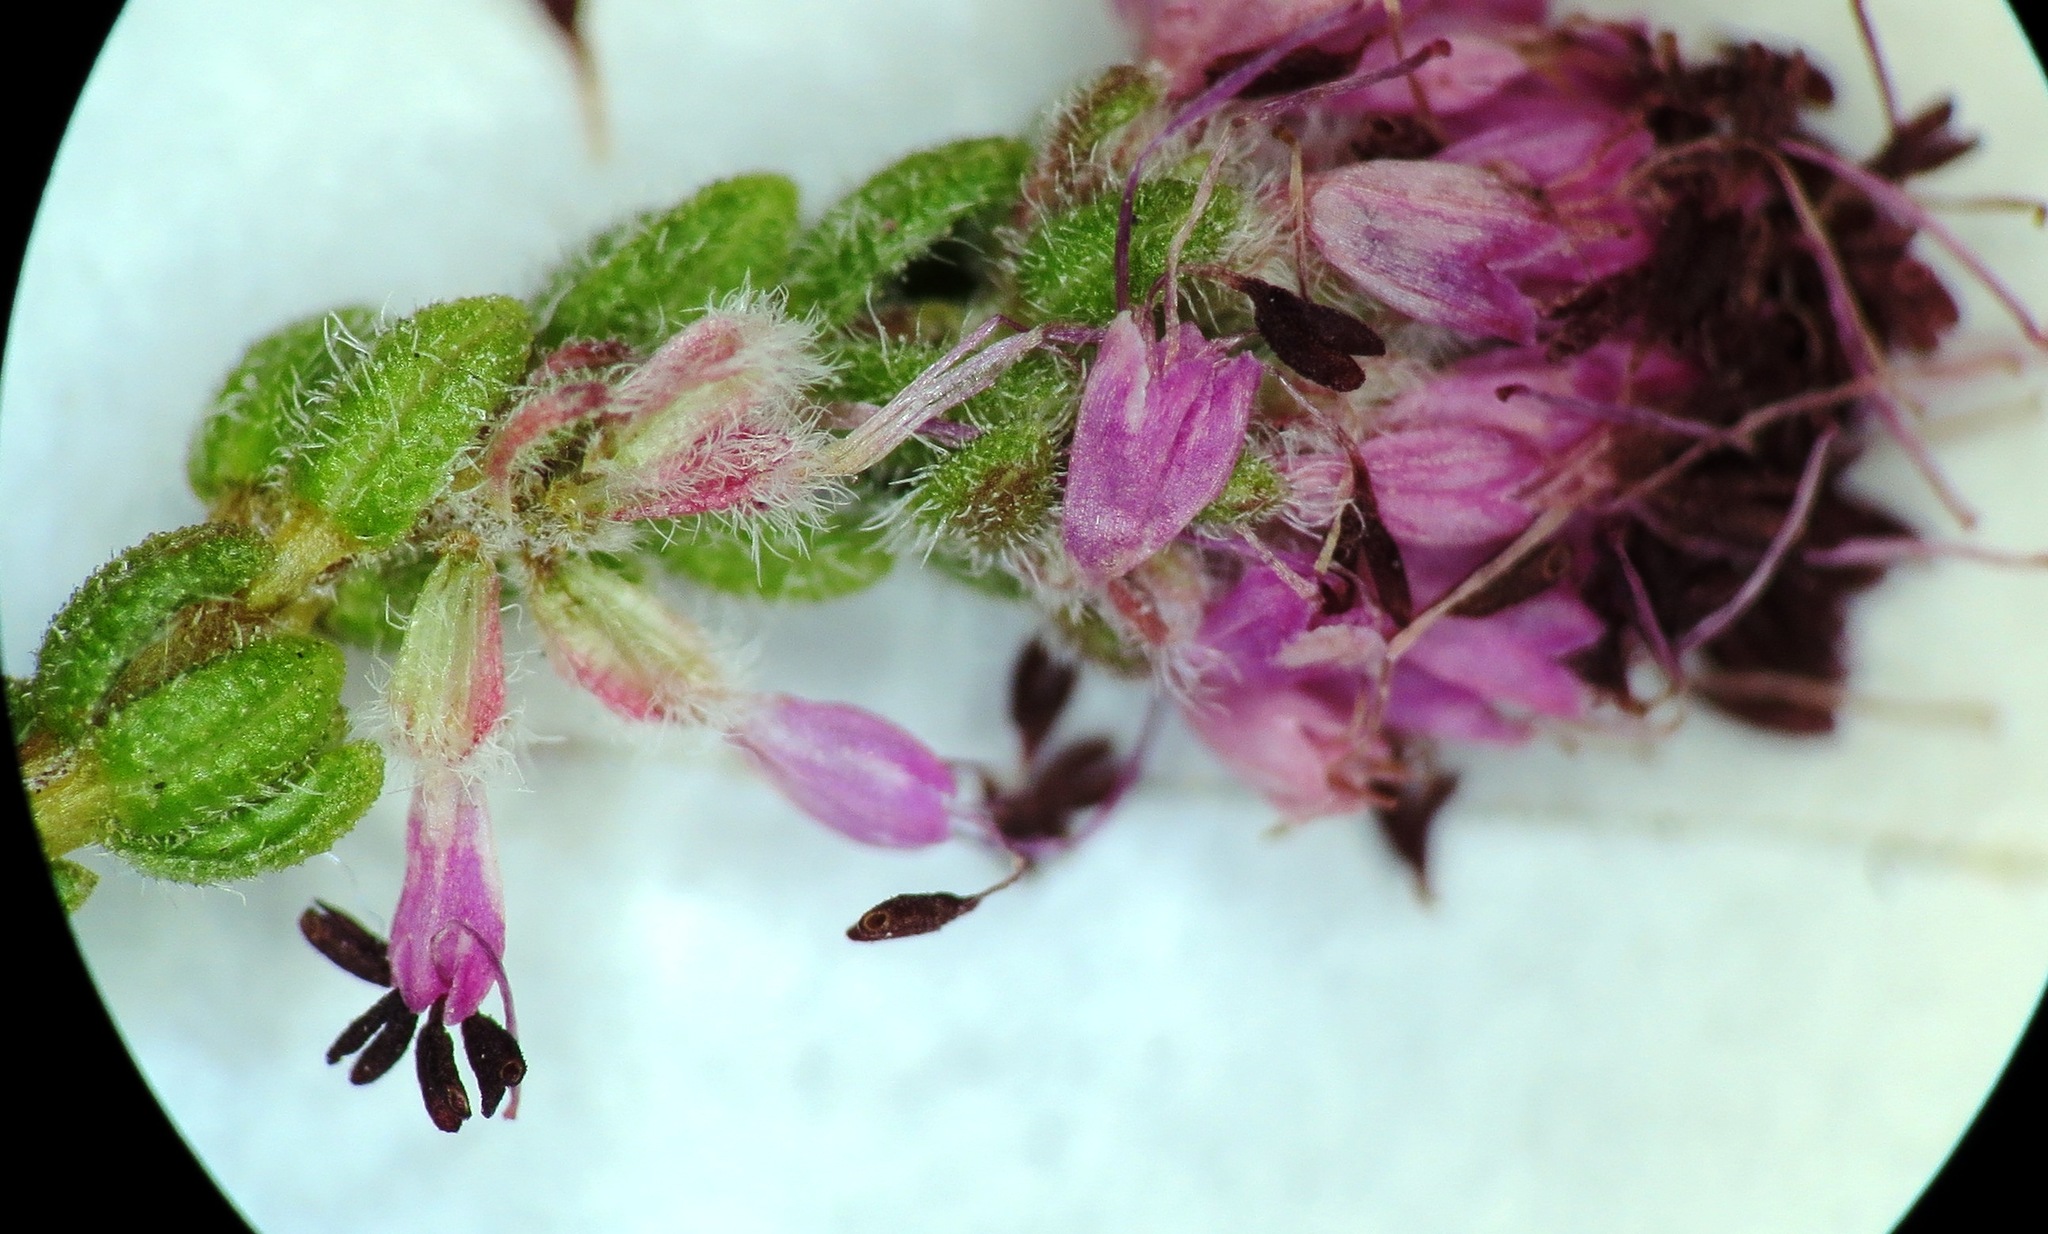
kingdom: Plantae
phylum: Tracheophyta
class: Magnoliopsida
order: Ericales
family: Ericaceae
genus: Erica
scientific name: Erica similis
